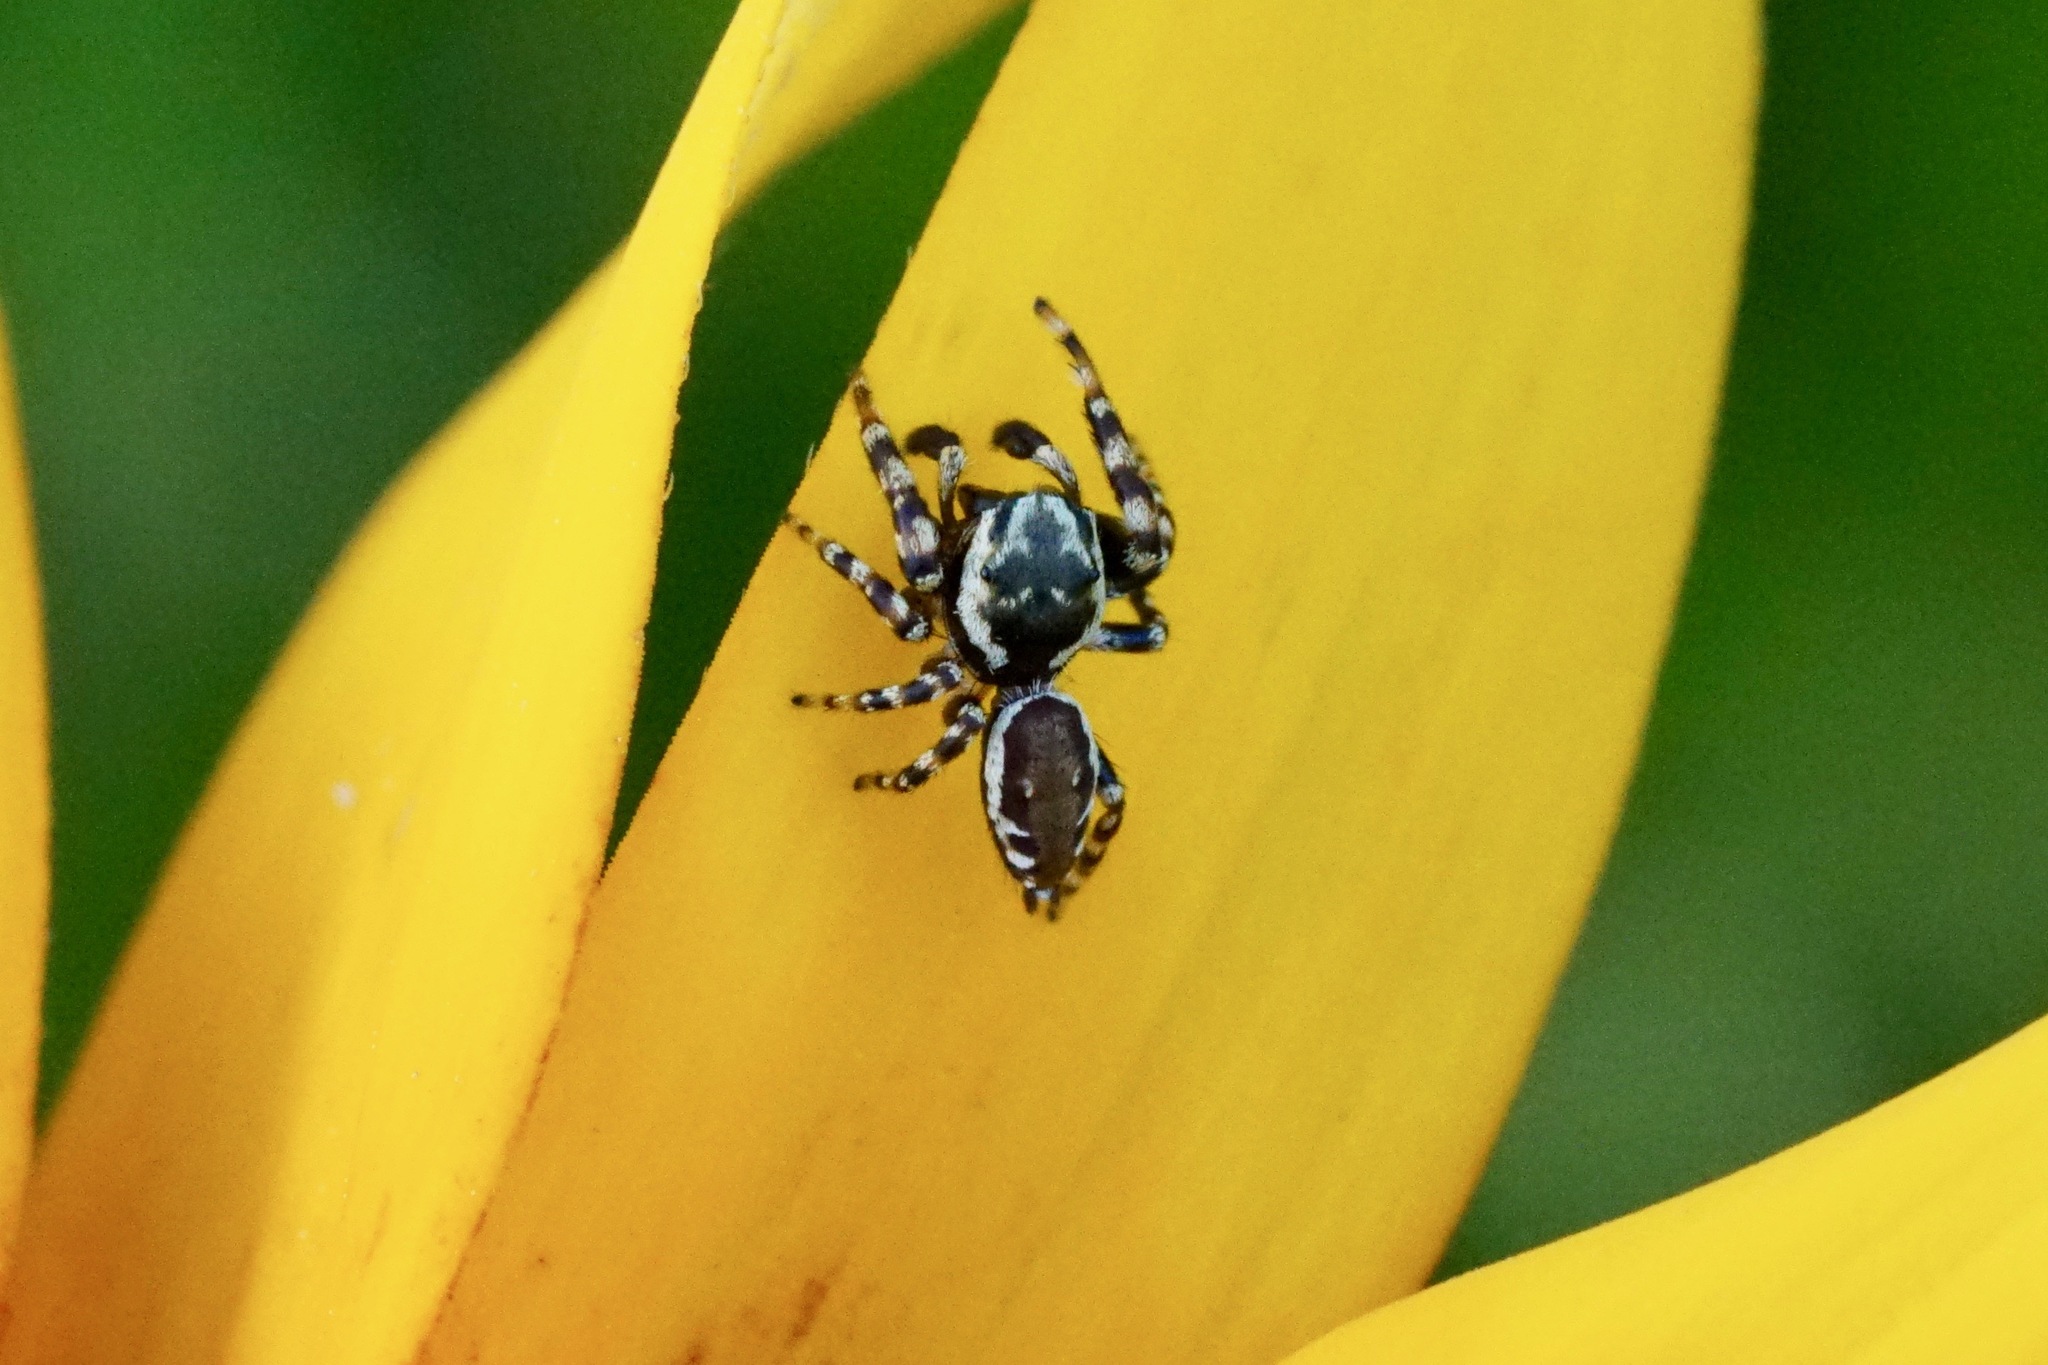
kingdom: Animalia
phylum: Arthropoda
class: Arachnida
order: Araneae
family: Salticidae
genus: Pelegrina
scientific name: Pelegrina galathea
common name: Jumping spiders
